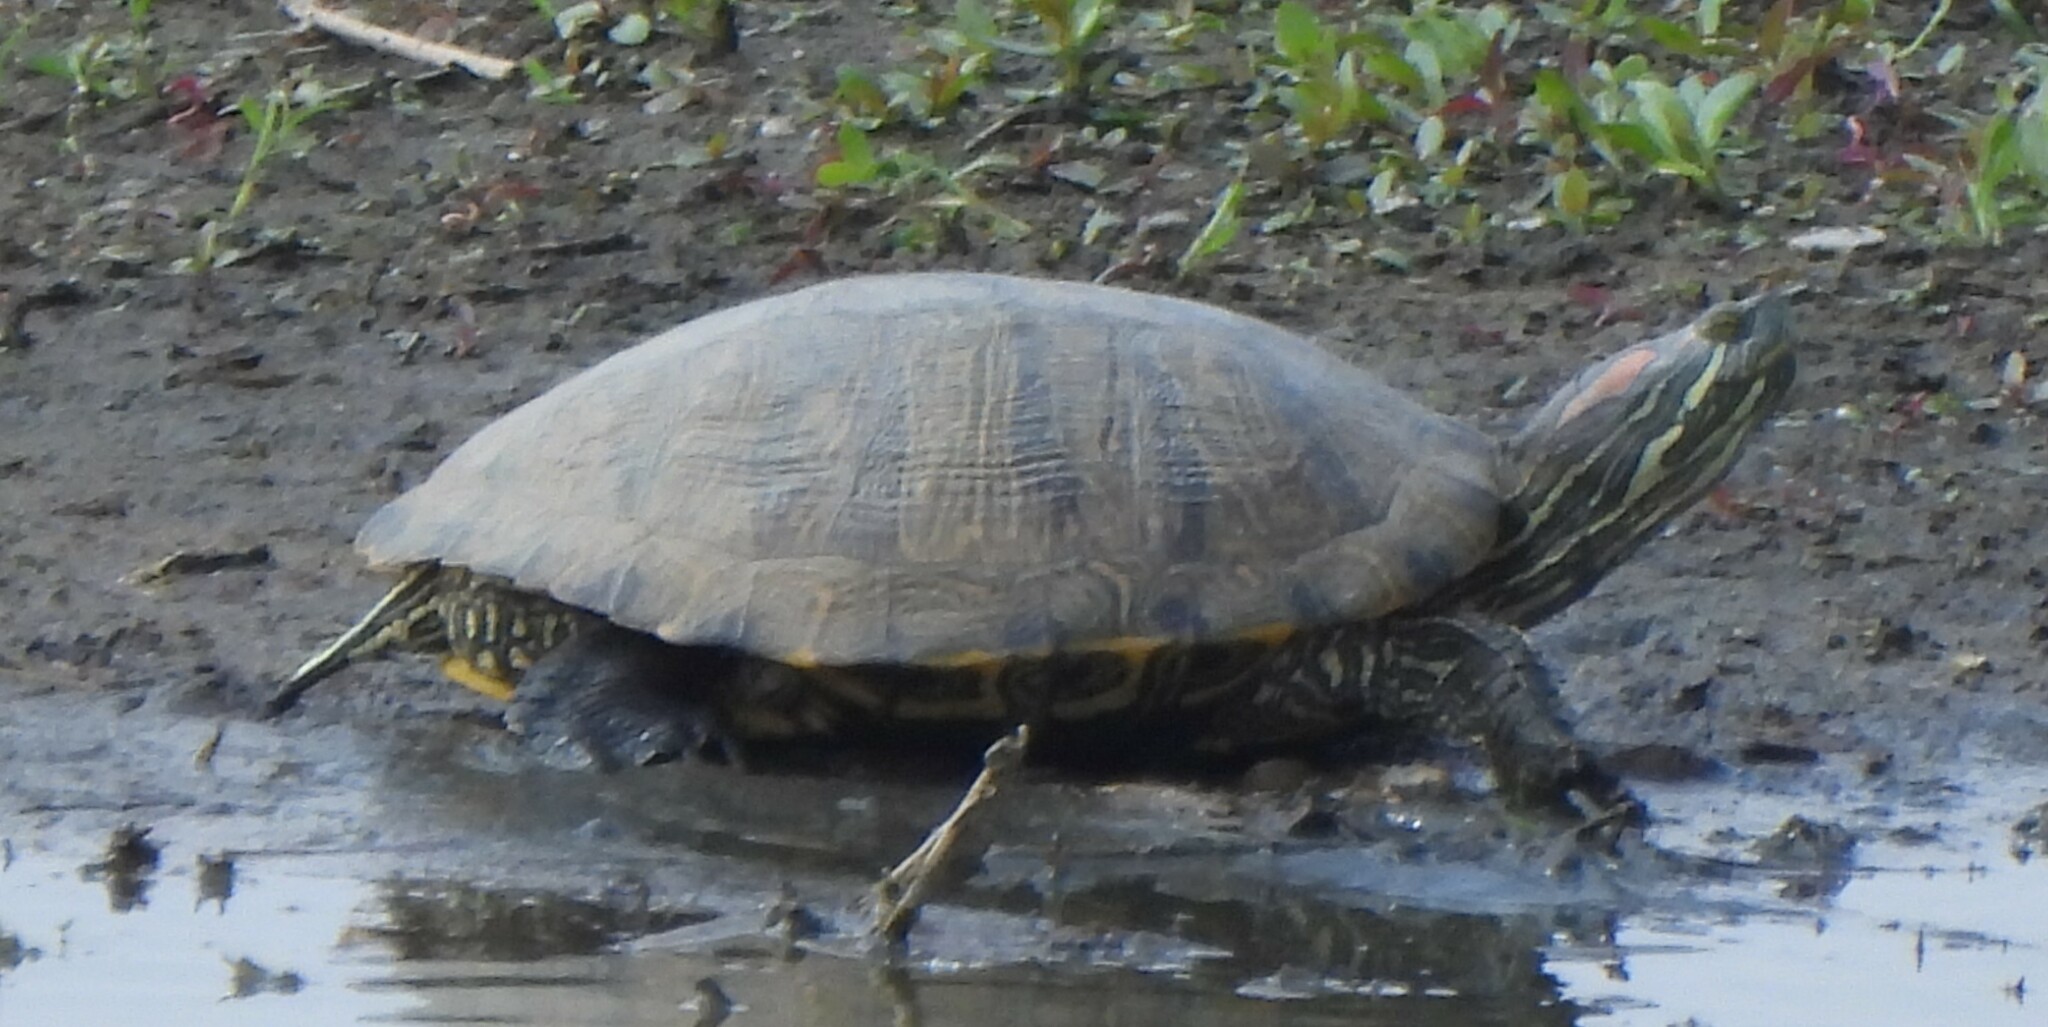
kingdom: Animalia
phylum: Chordata
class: Testudines
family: Emydidae
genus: Trachemys
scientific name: Trachemys scripta
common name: Slider
